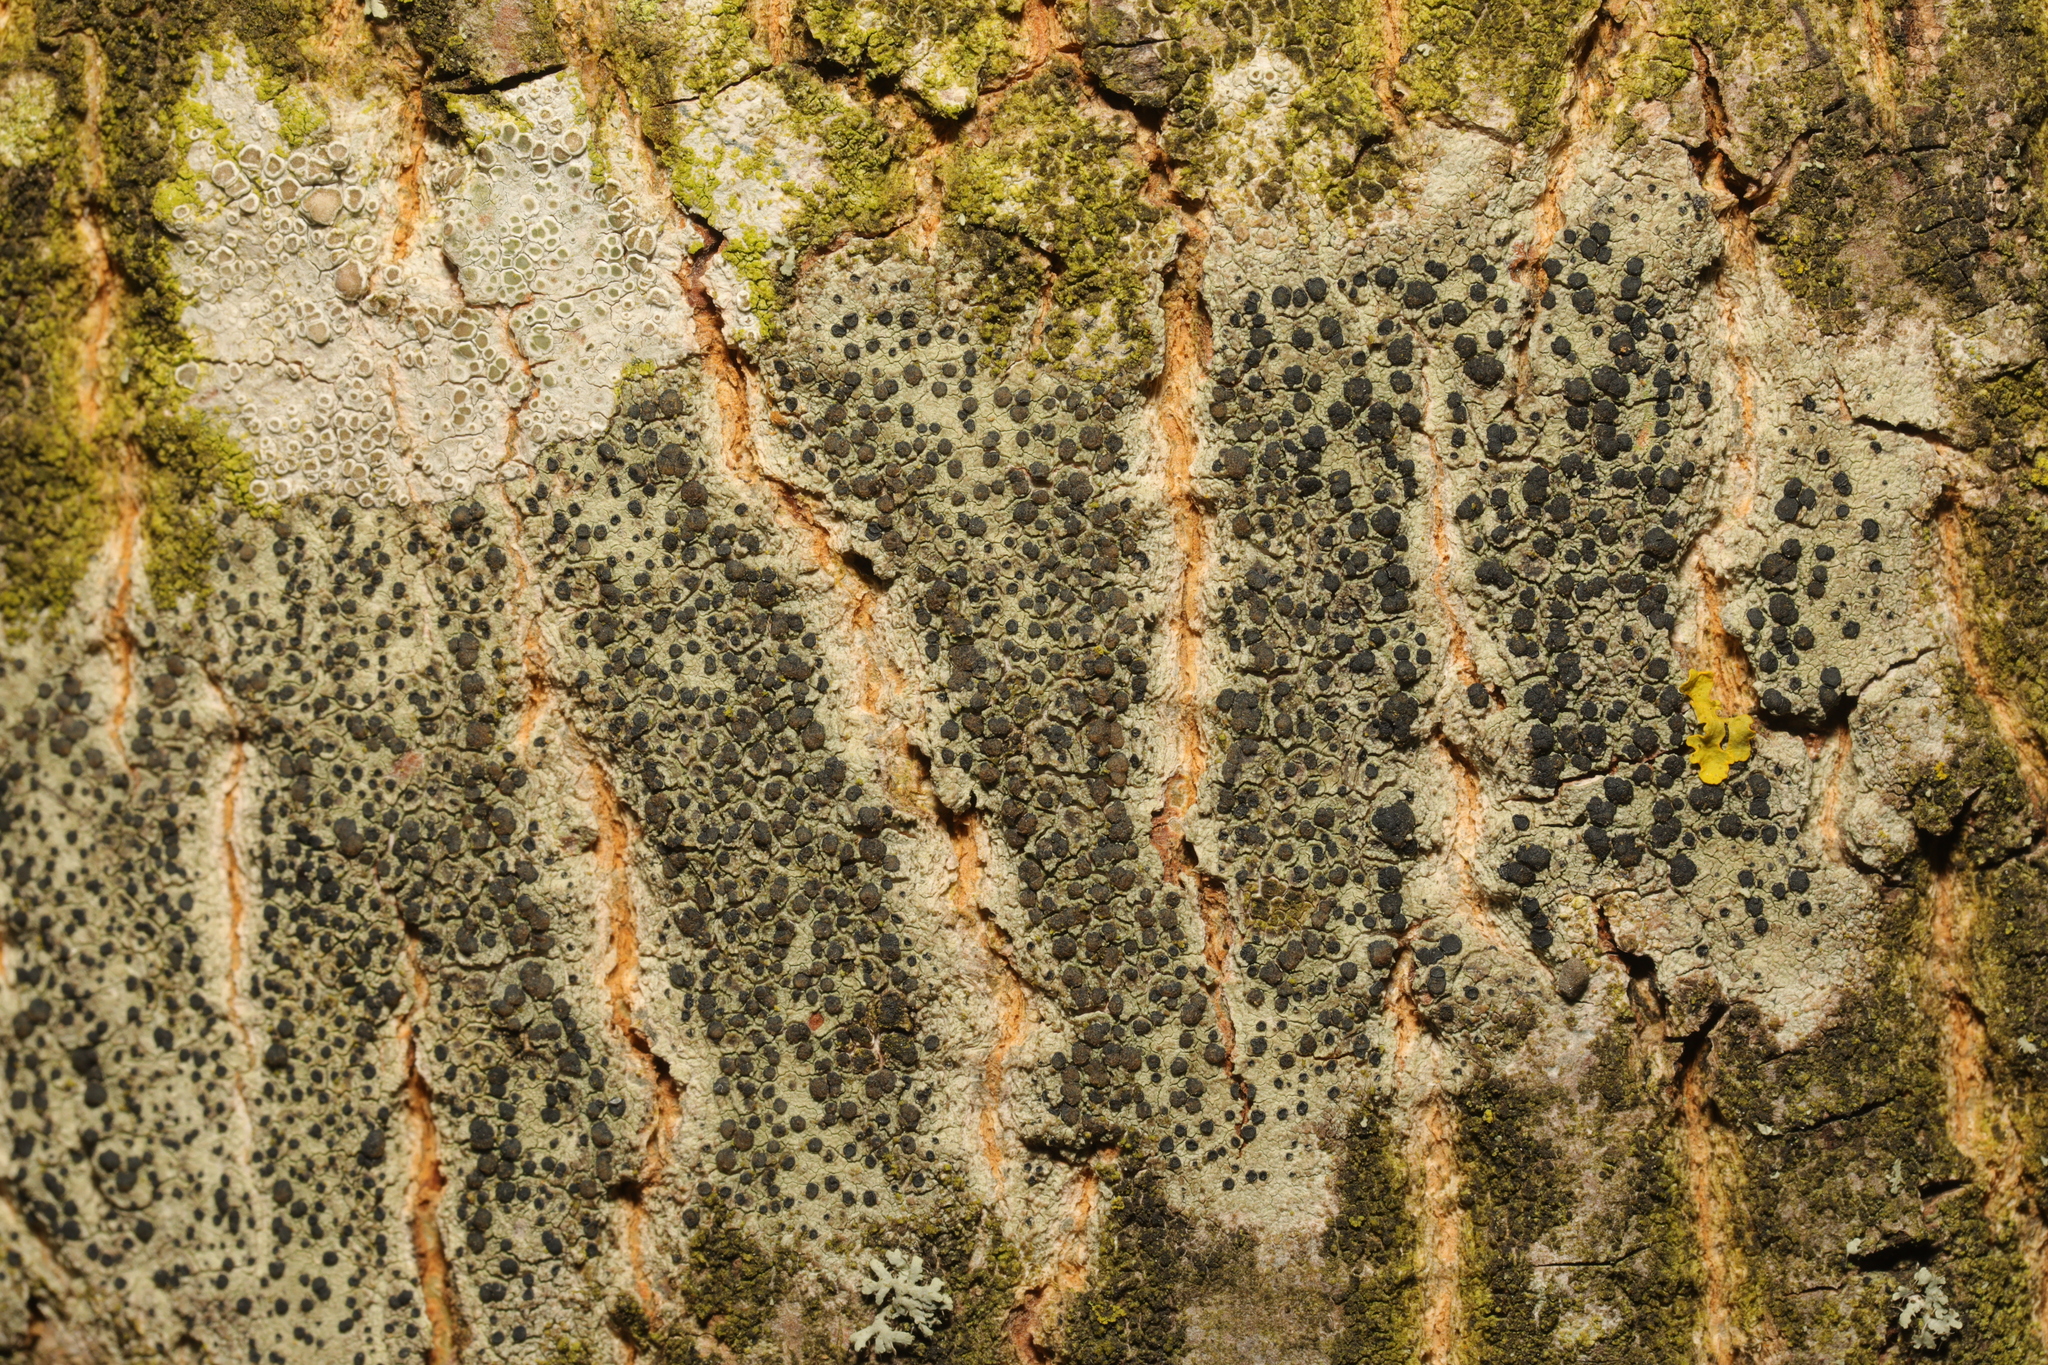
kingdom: Fungi
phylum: Ascomycota
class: Lecanoromycetes
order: Lecanorales
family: Lecanoraceae
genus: Lecidella
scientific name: Lecidella elaeochroma
